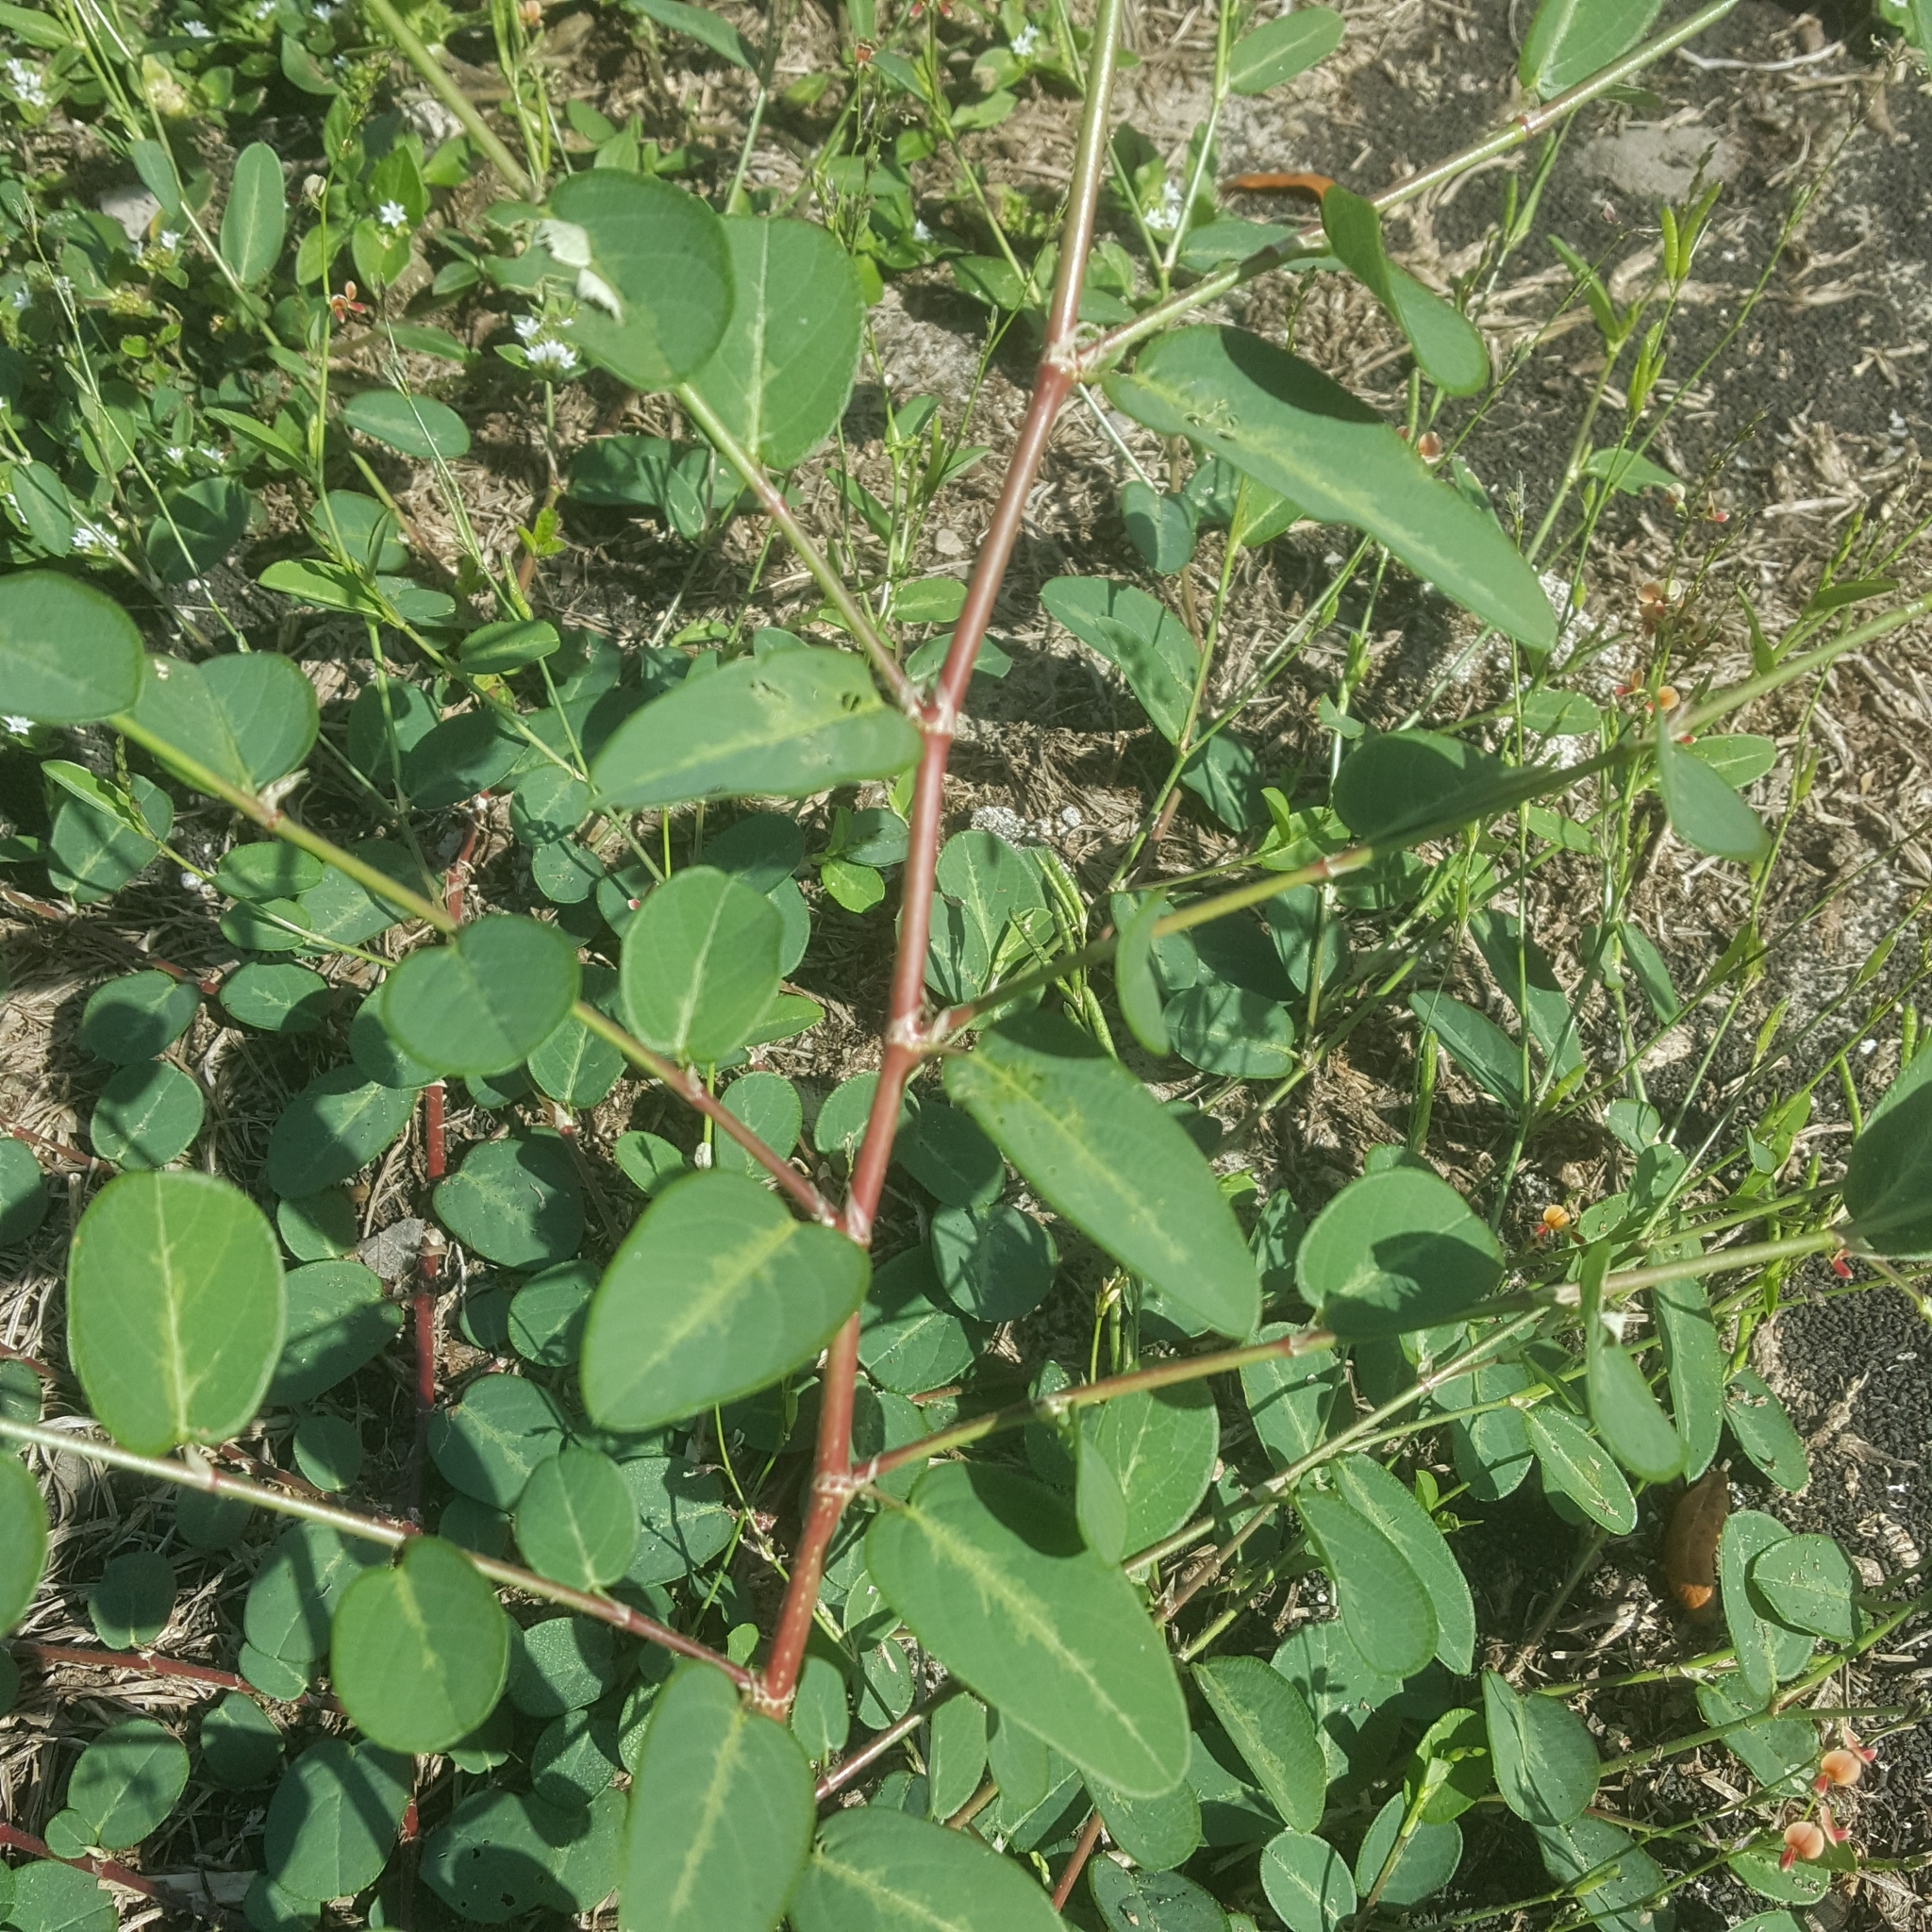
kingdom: Plantae
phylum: Tracheophyta
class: Magnoliopsida
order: Fabales
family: Fabaceae
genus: Alysicarpus
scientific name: Alysicarpus ovalifolius
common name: Alyce clover
